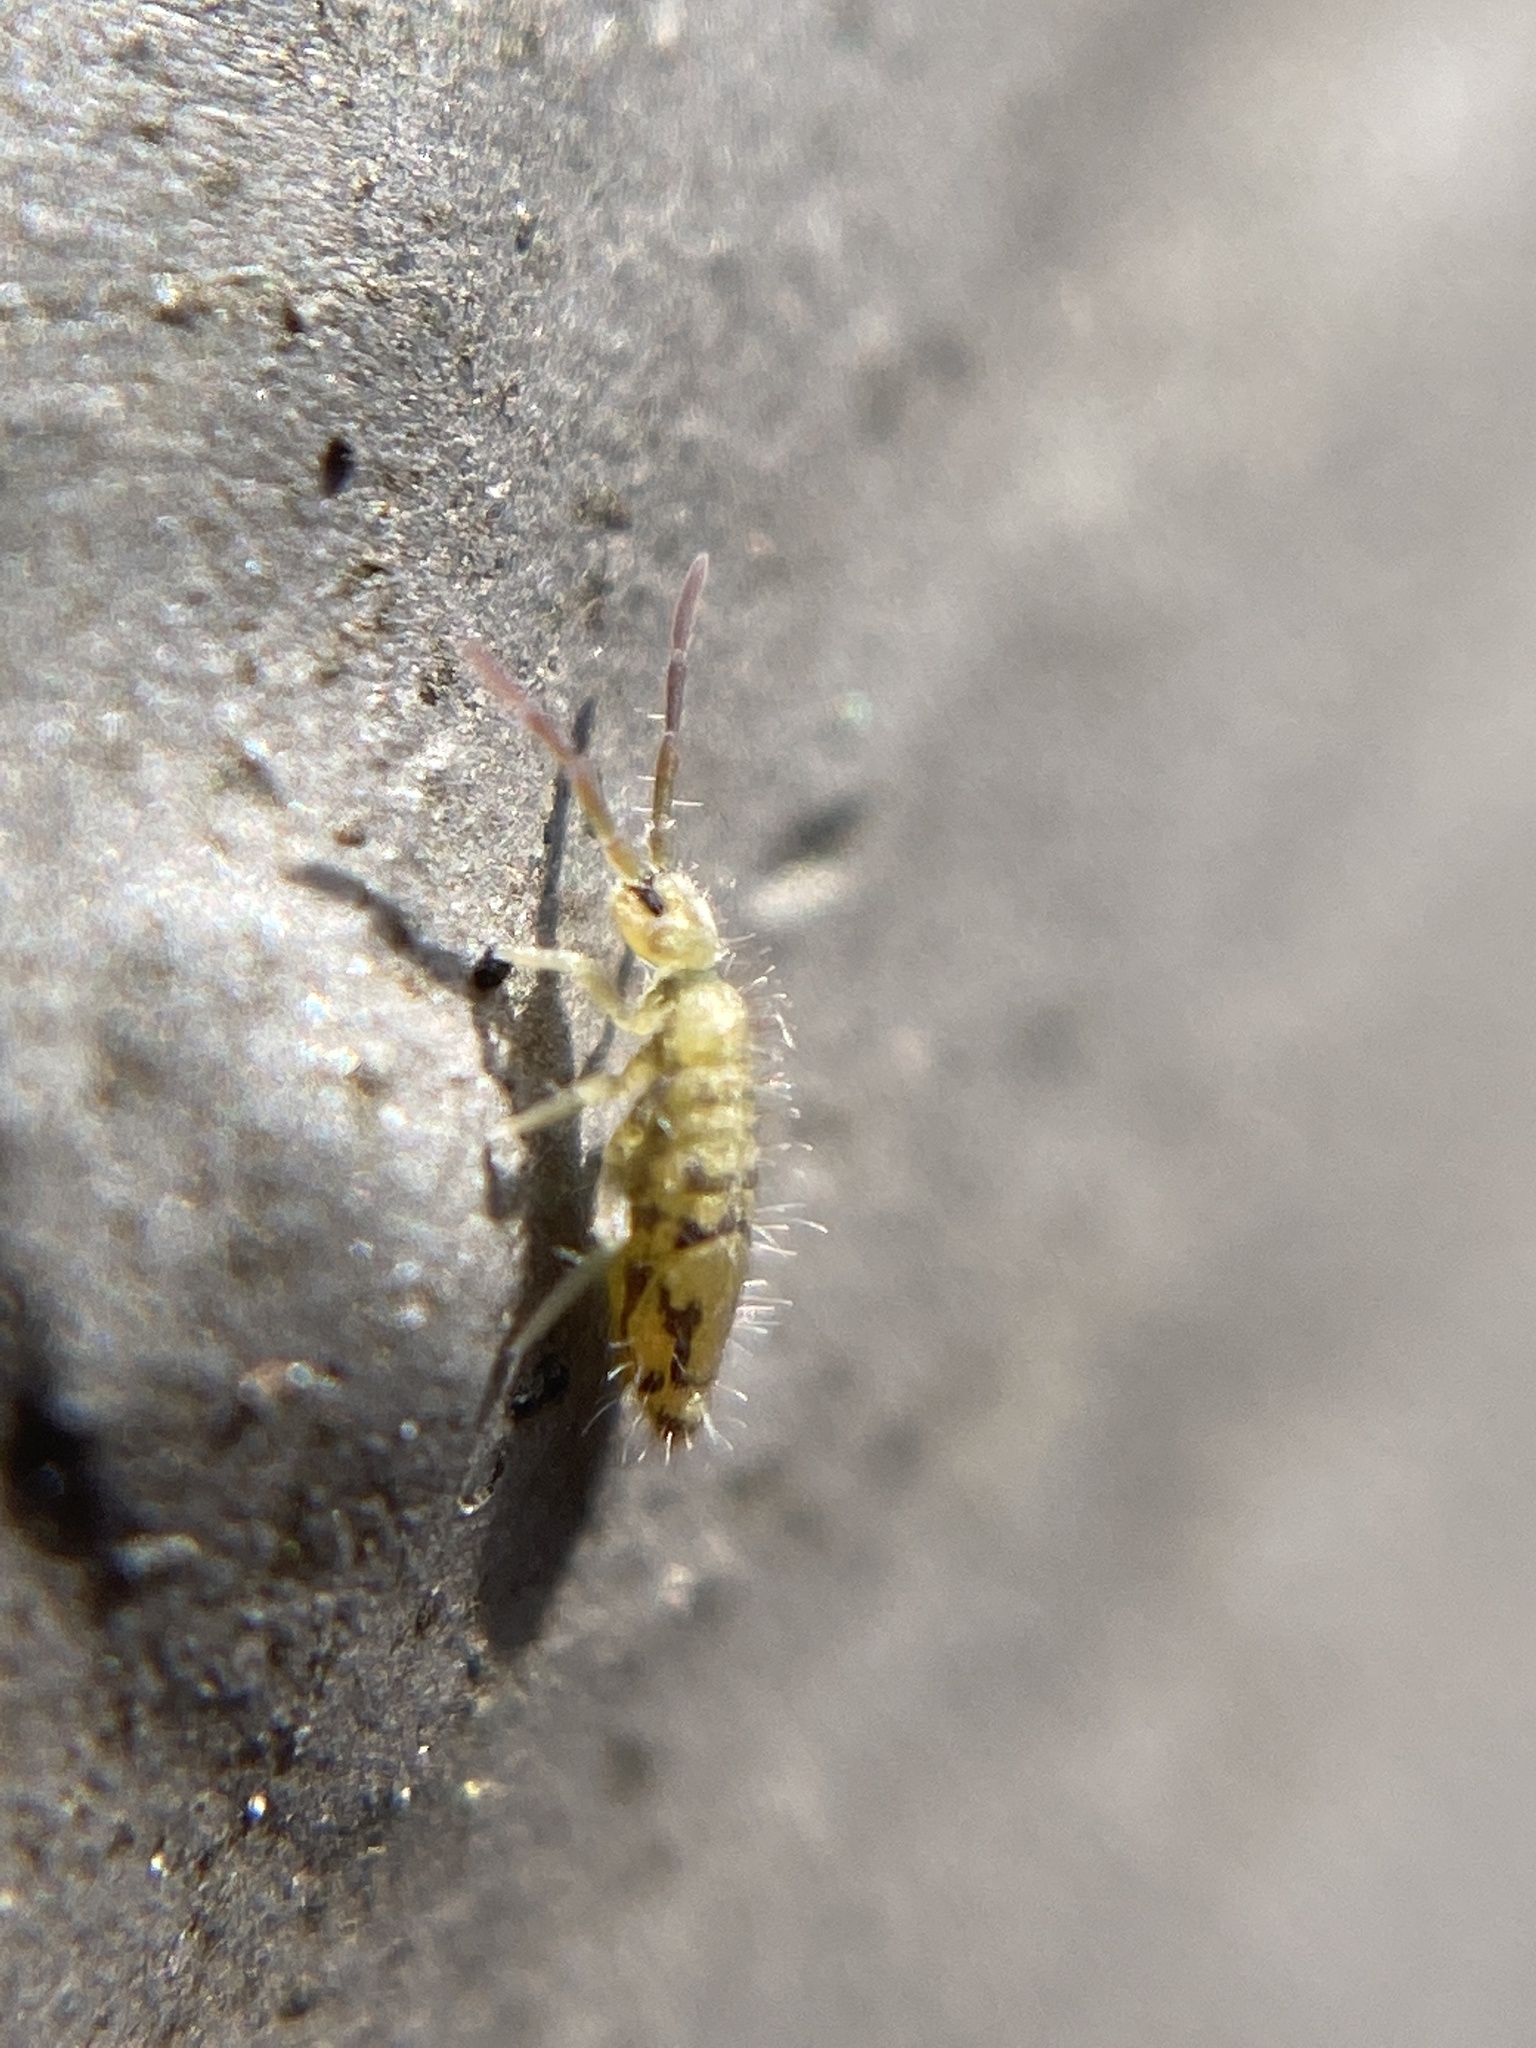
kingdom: Animalia
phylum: Arthropoda
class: Collembola
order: Entomobryomorpha
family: Entomobryidae
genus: Entomobrya
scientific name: Entomobrya nivalis
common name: Cosmopolitan springtail
